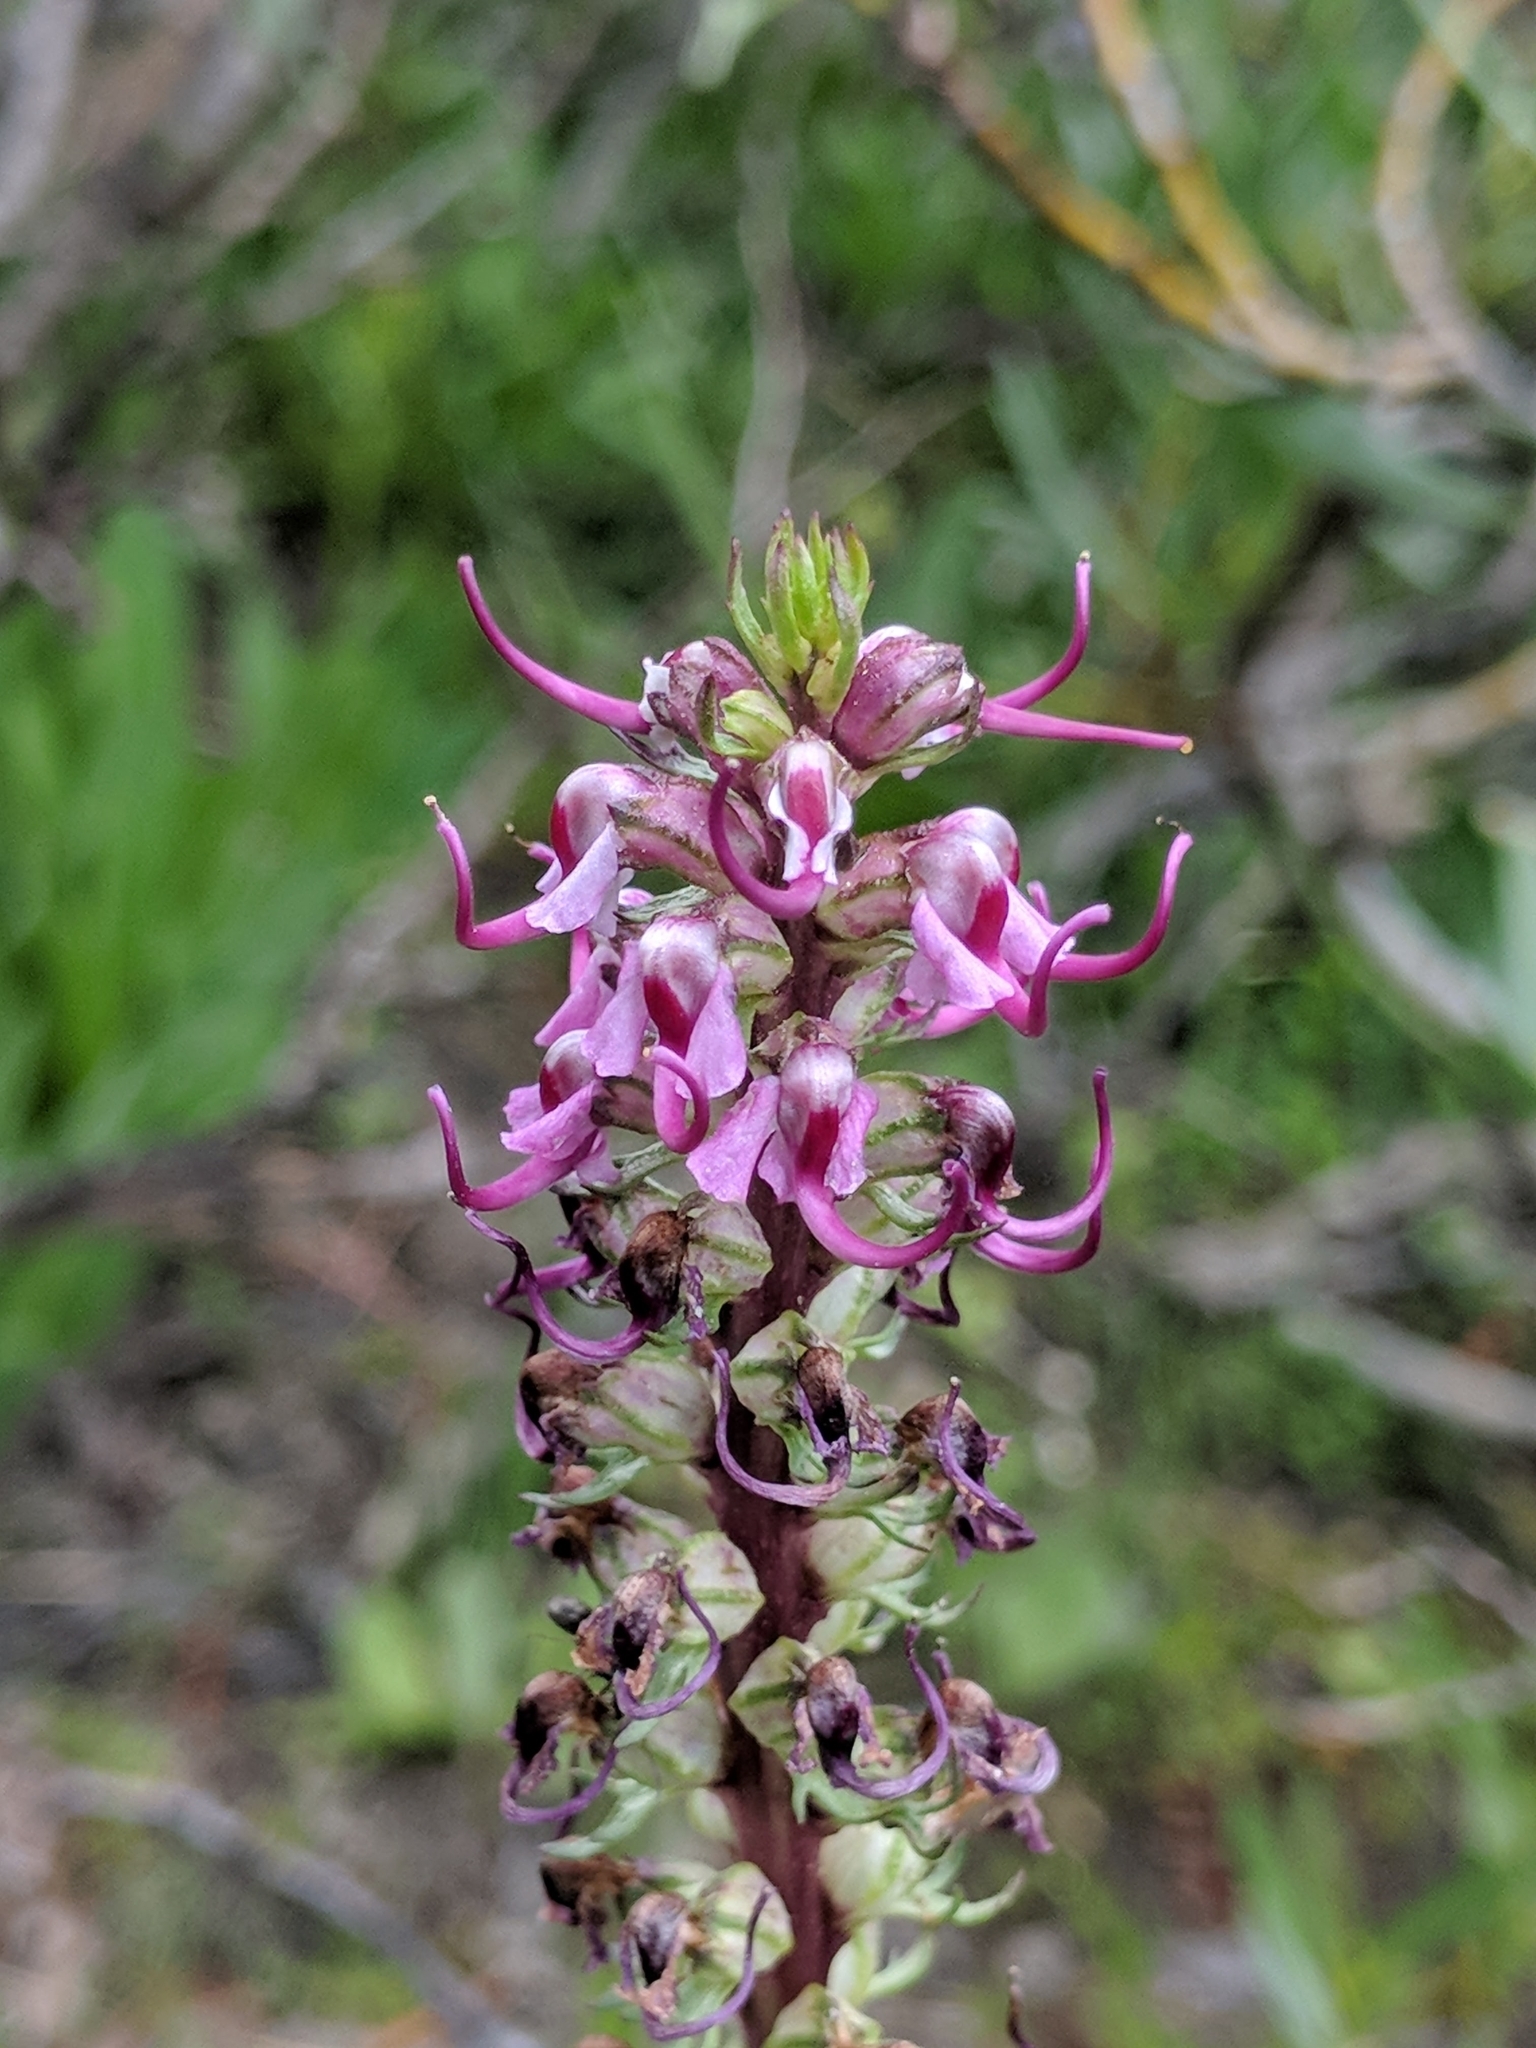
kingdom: Plantae
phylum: Tracheophyta
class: Magnoliopsida
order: Lamiales
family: Orobanchaceae
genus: Pedicularis
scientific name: Pedicularis groenlandica
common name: Elephant's-head
